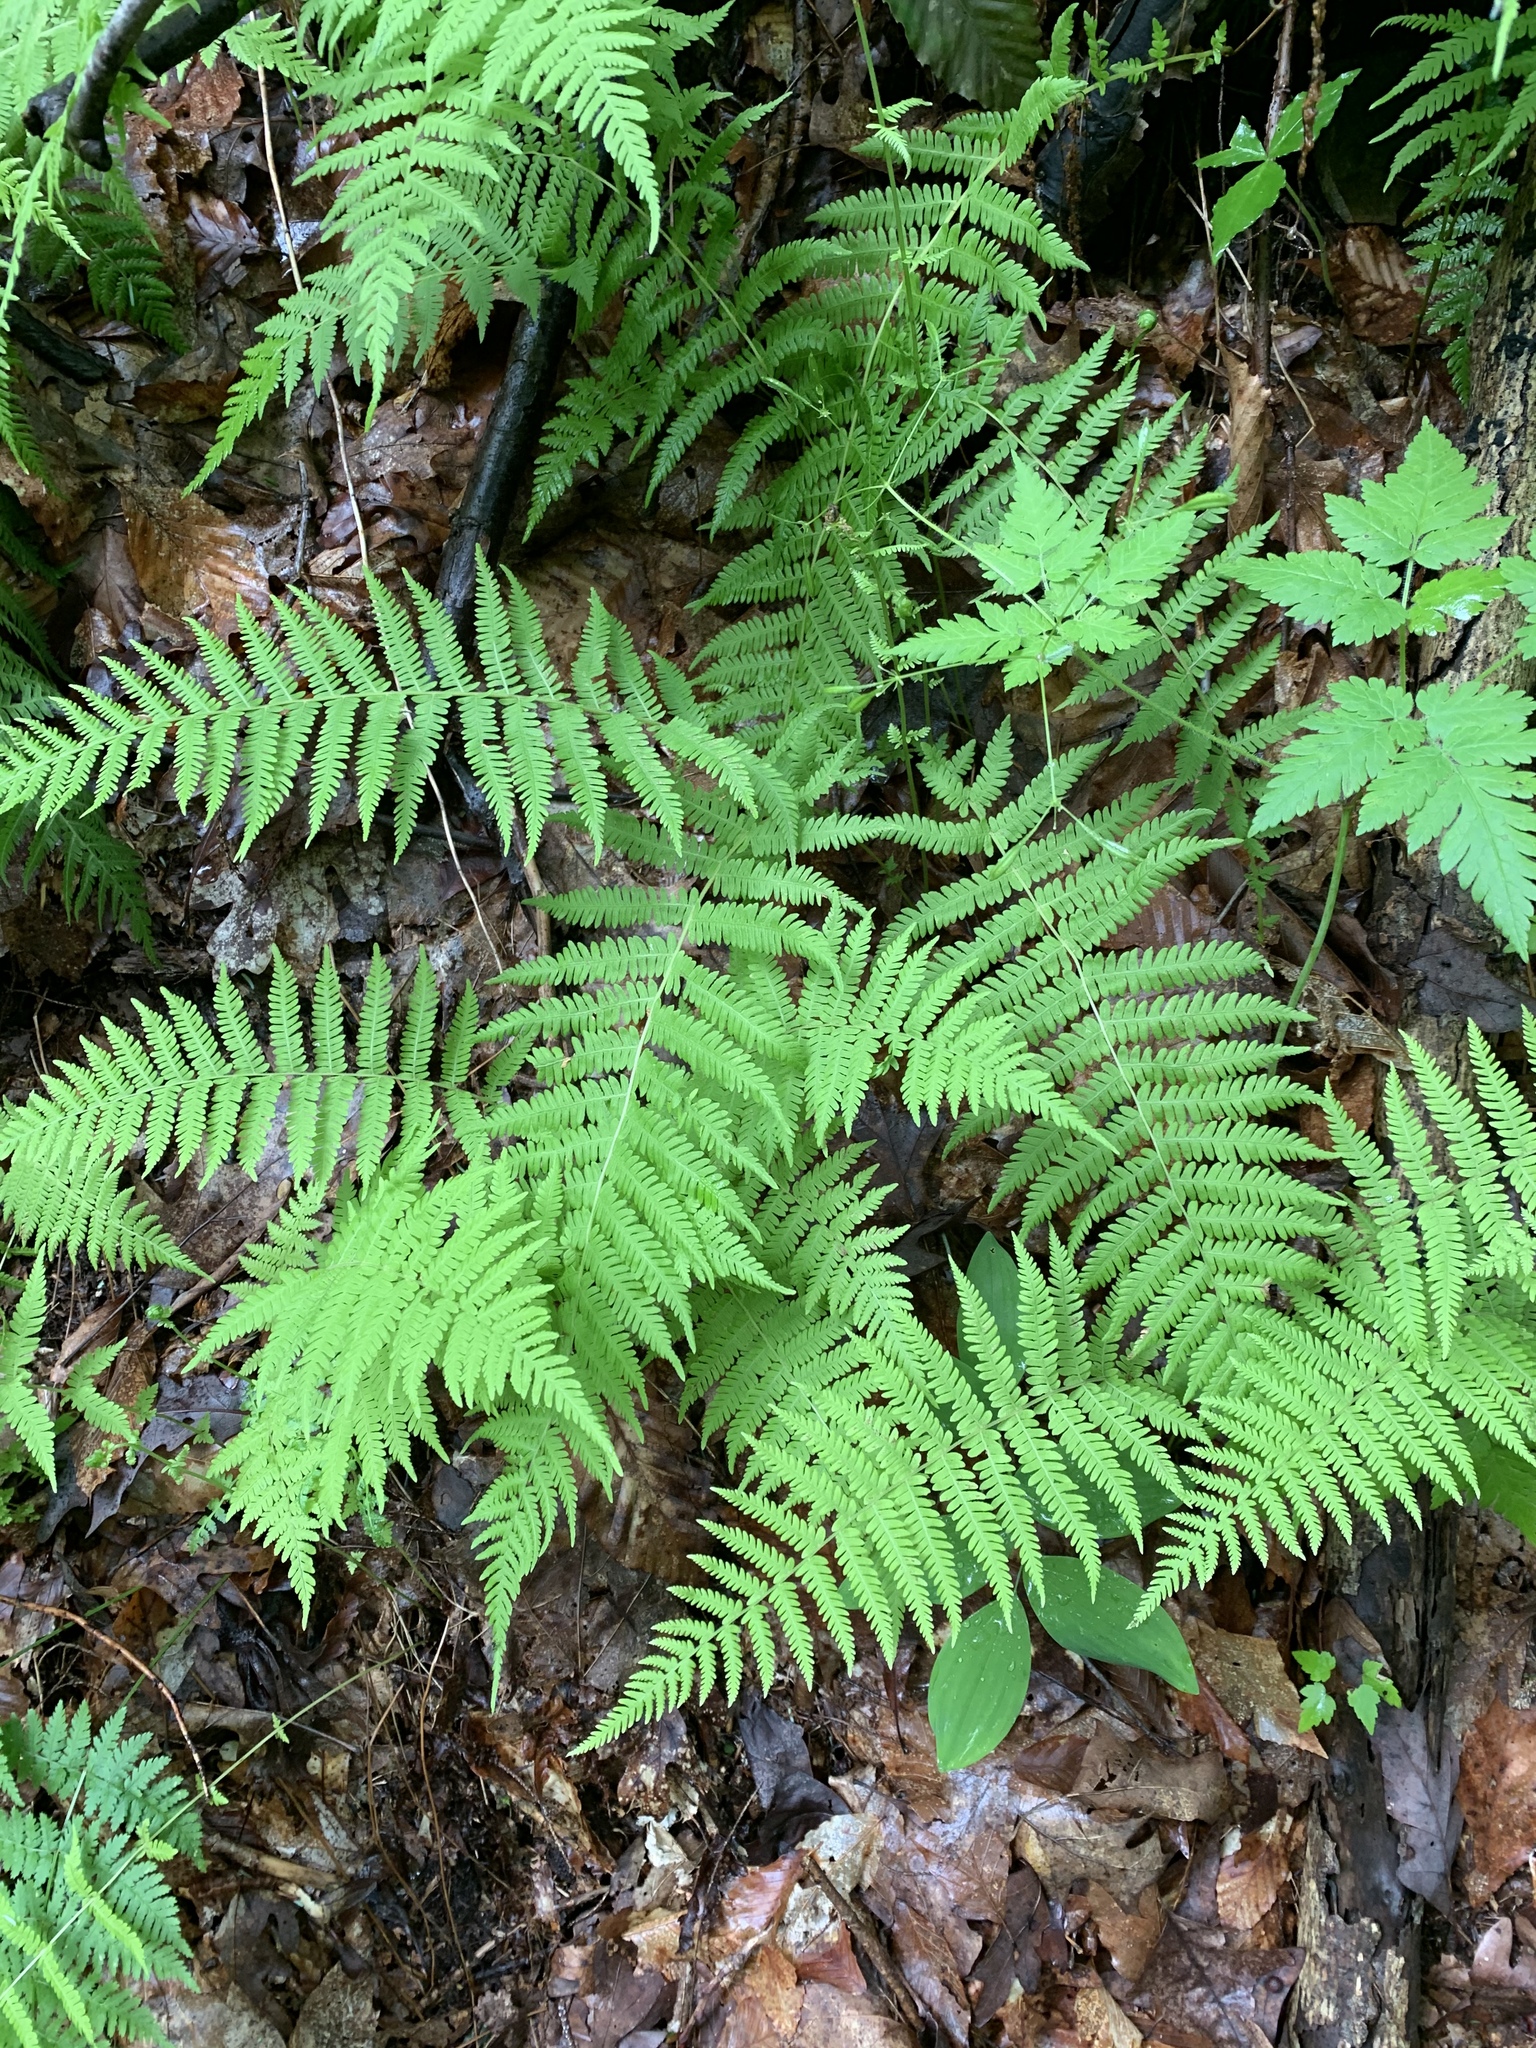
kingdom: Plantae
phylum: Tracheophyta
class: Polypodiopsida
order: Polypodiales
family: Thelypteridaceae
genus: Amauropelta
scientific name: Amauropelta noveboracensis
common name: New york fern
